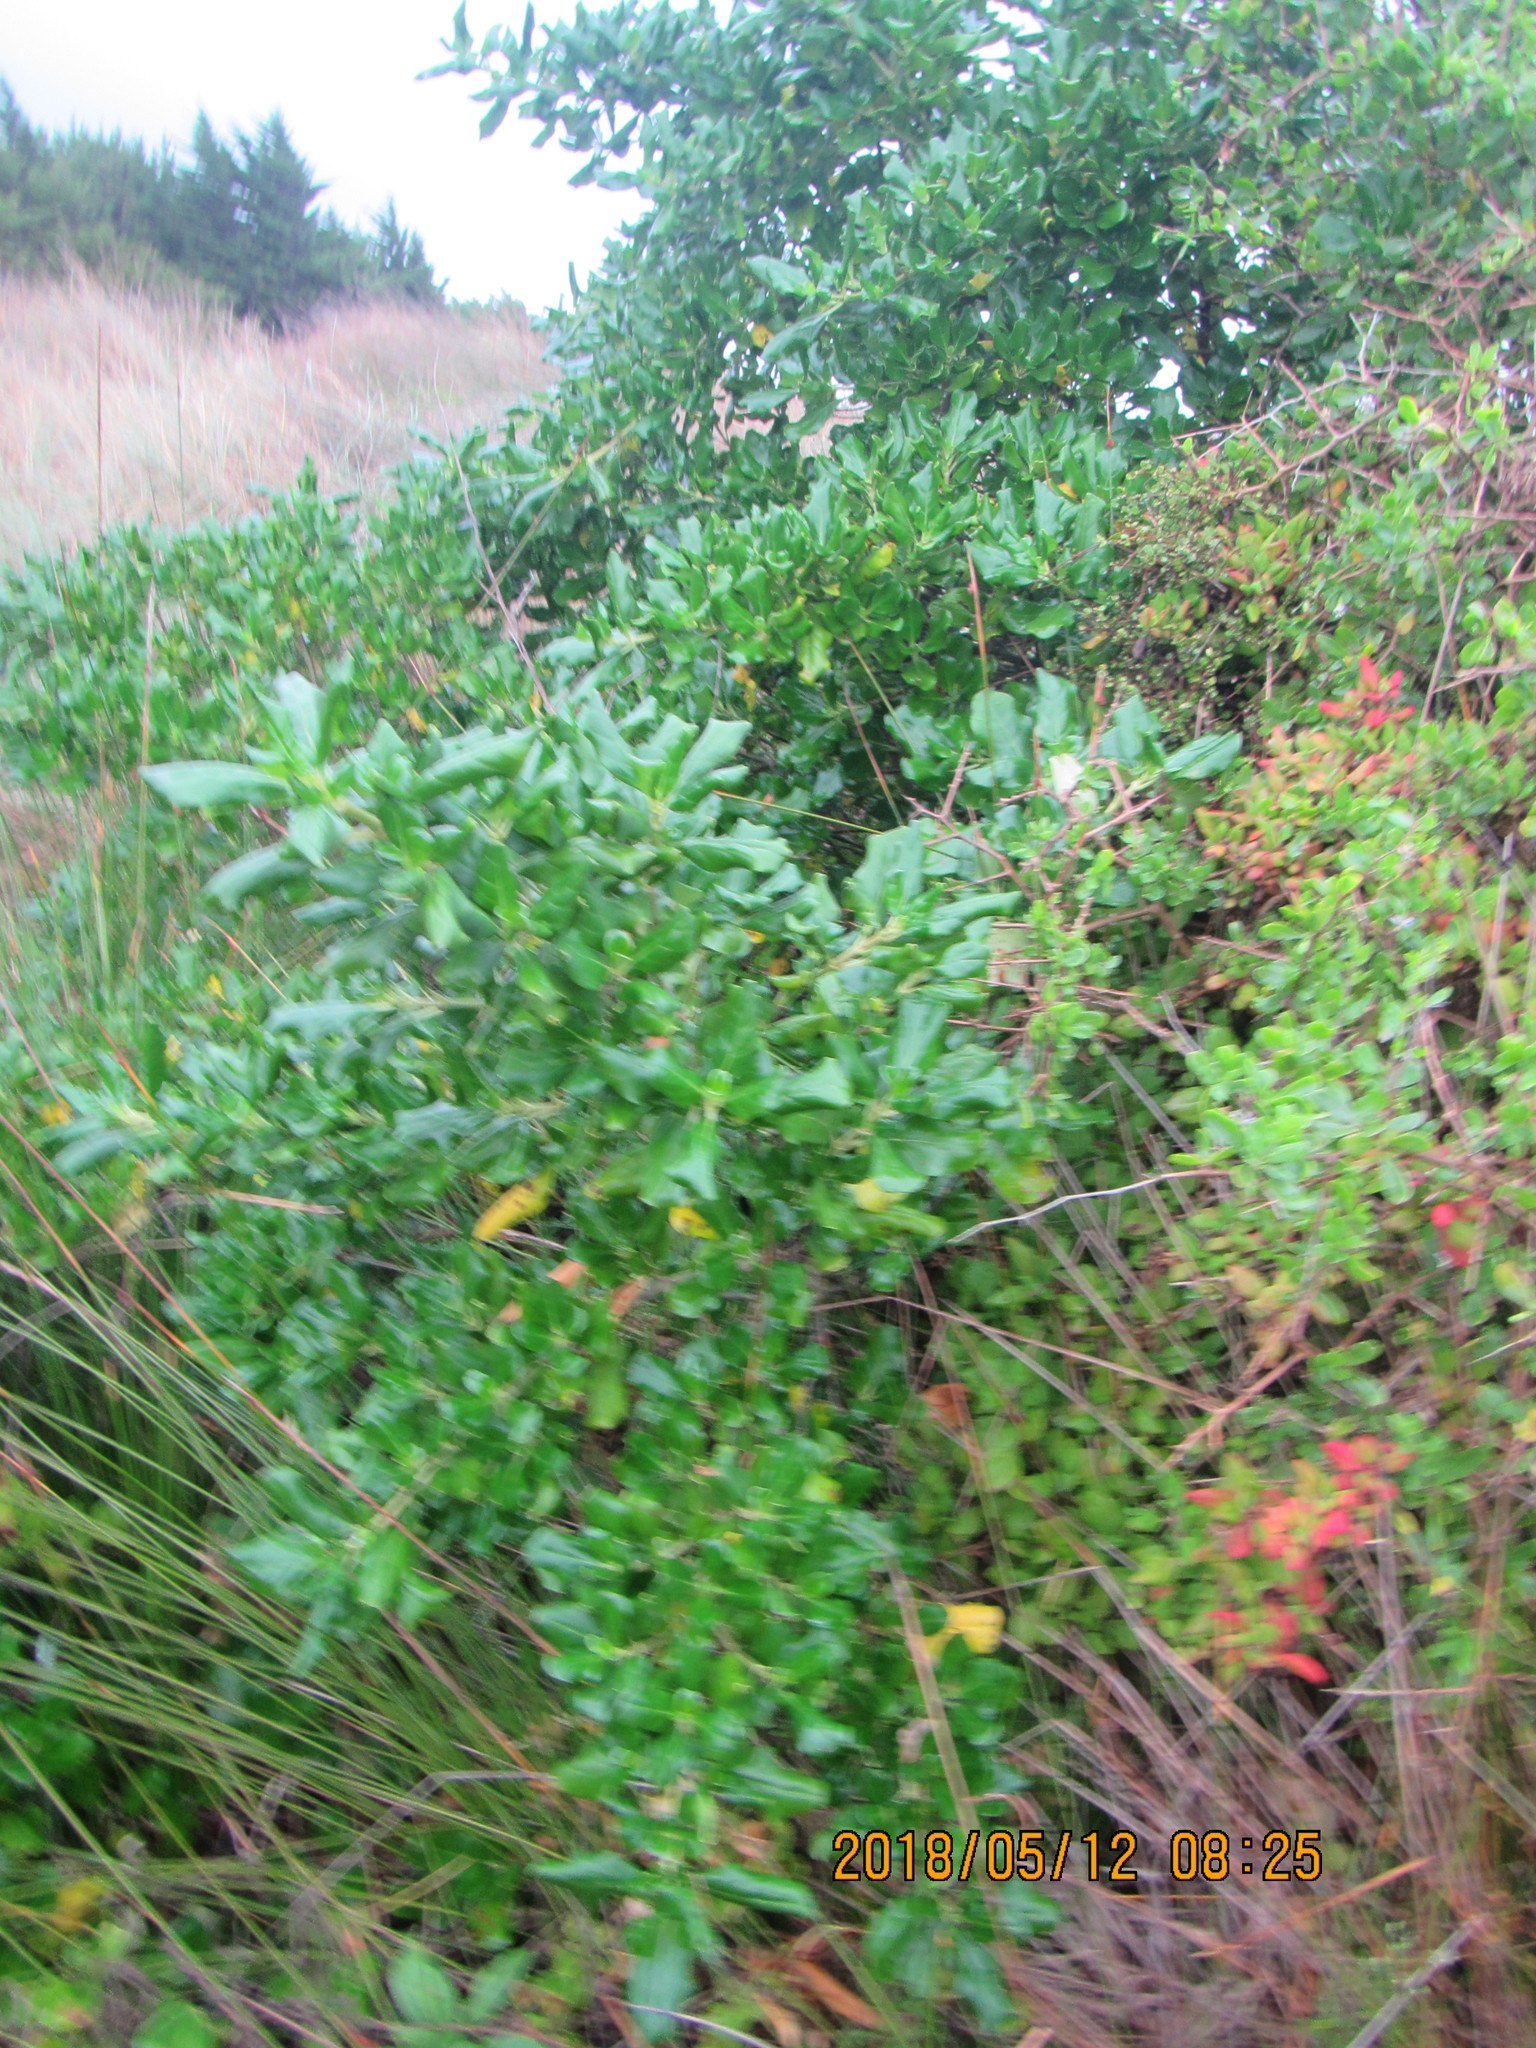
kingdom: Plantae
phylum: Tracheophyta
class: Magnoliopsida
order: Gentianales
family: Rubiaceae
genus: Coprosma
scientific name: Coprosma repens
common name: Tree bedstraw
